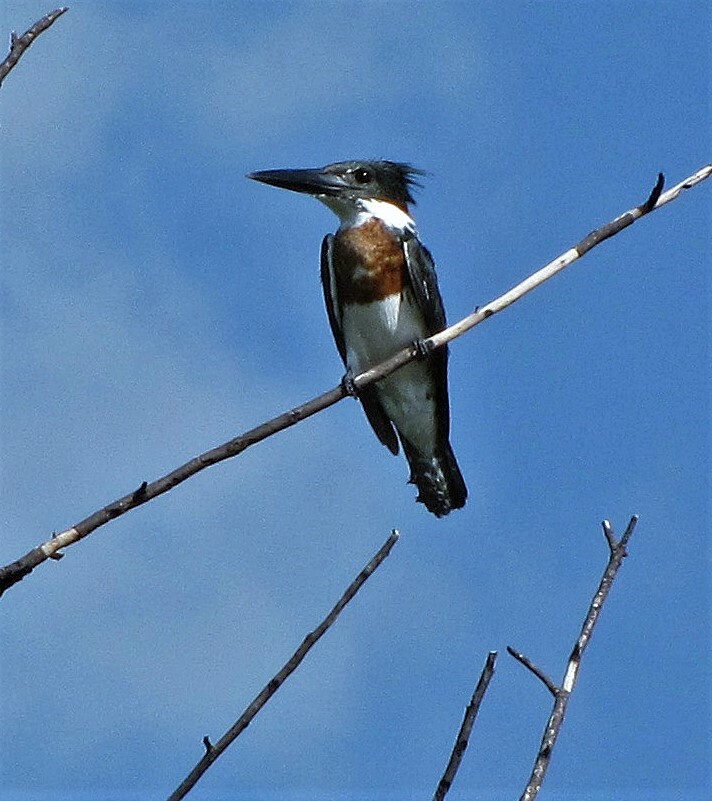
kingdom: Animalia
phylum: Chordata
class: Aves
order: Coraciiformes
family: Alcedinidae
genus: Chloroceryle
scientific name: Chloroceryle amazona
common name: Amazon kingfisher
